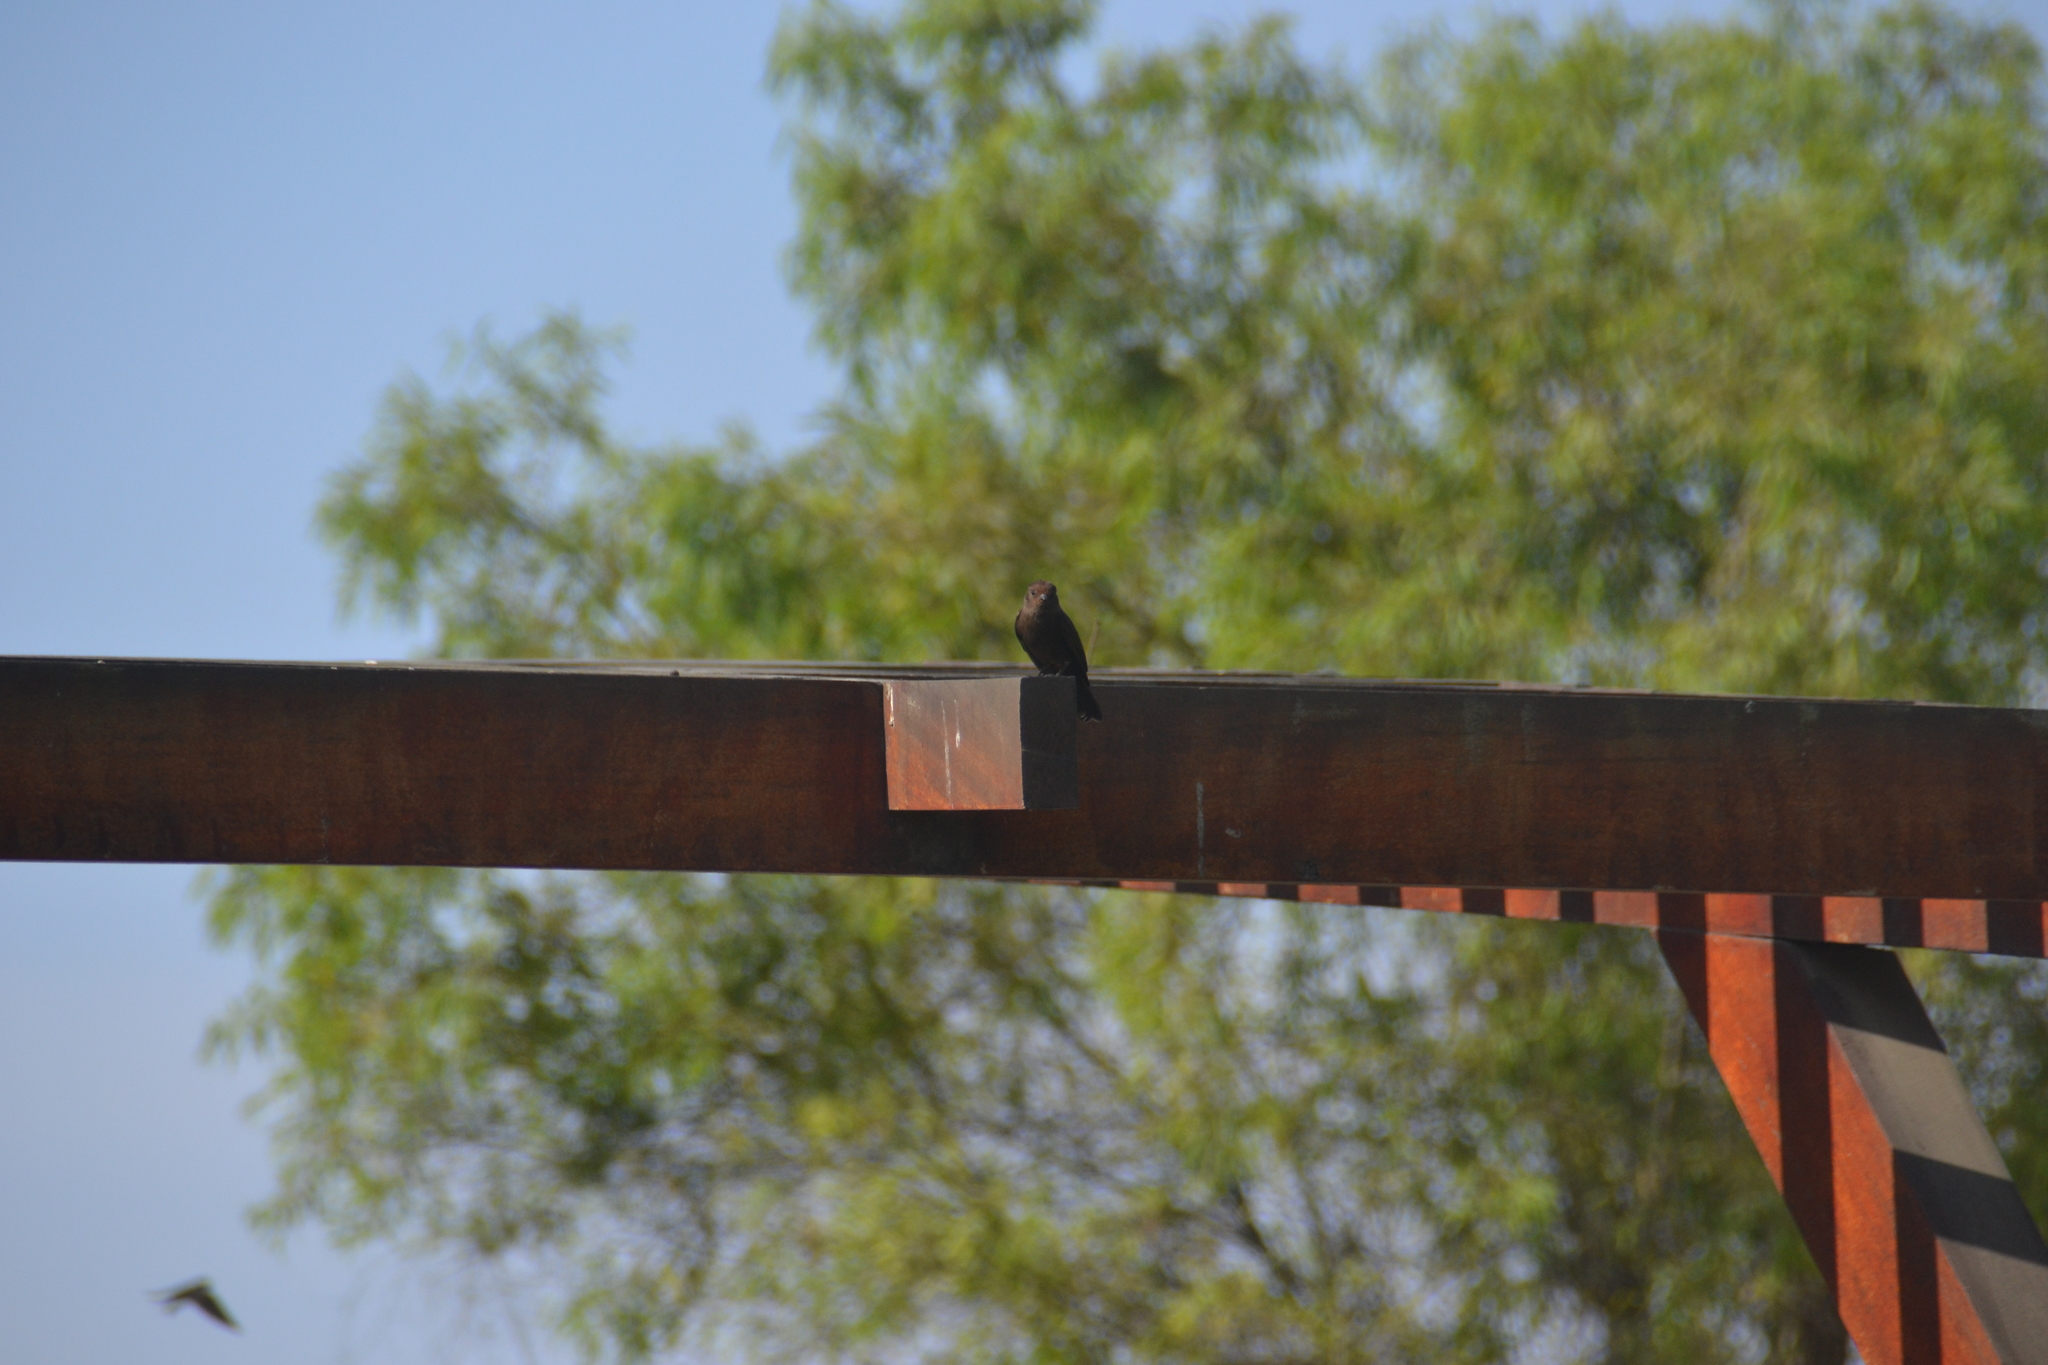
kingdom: Animalia
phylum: Chordata
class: Aves
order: Passeriformes
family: Tyrannidae
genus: Pyrocephalus
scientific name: Pyrocephalus rubinus
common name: Vermilion flycatcher
